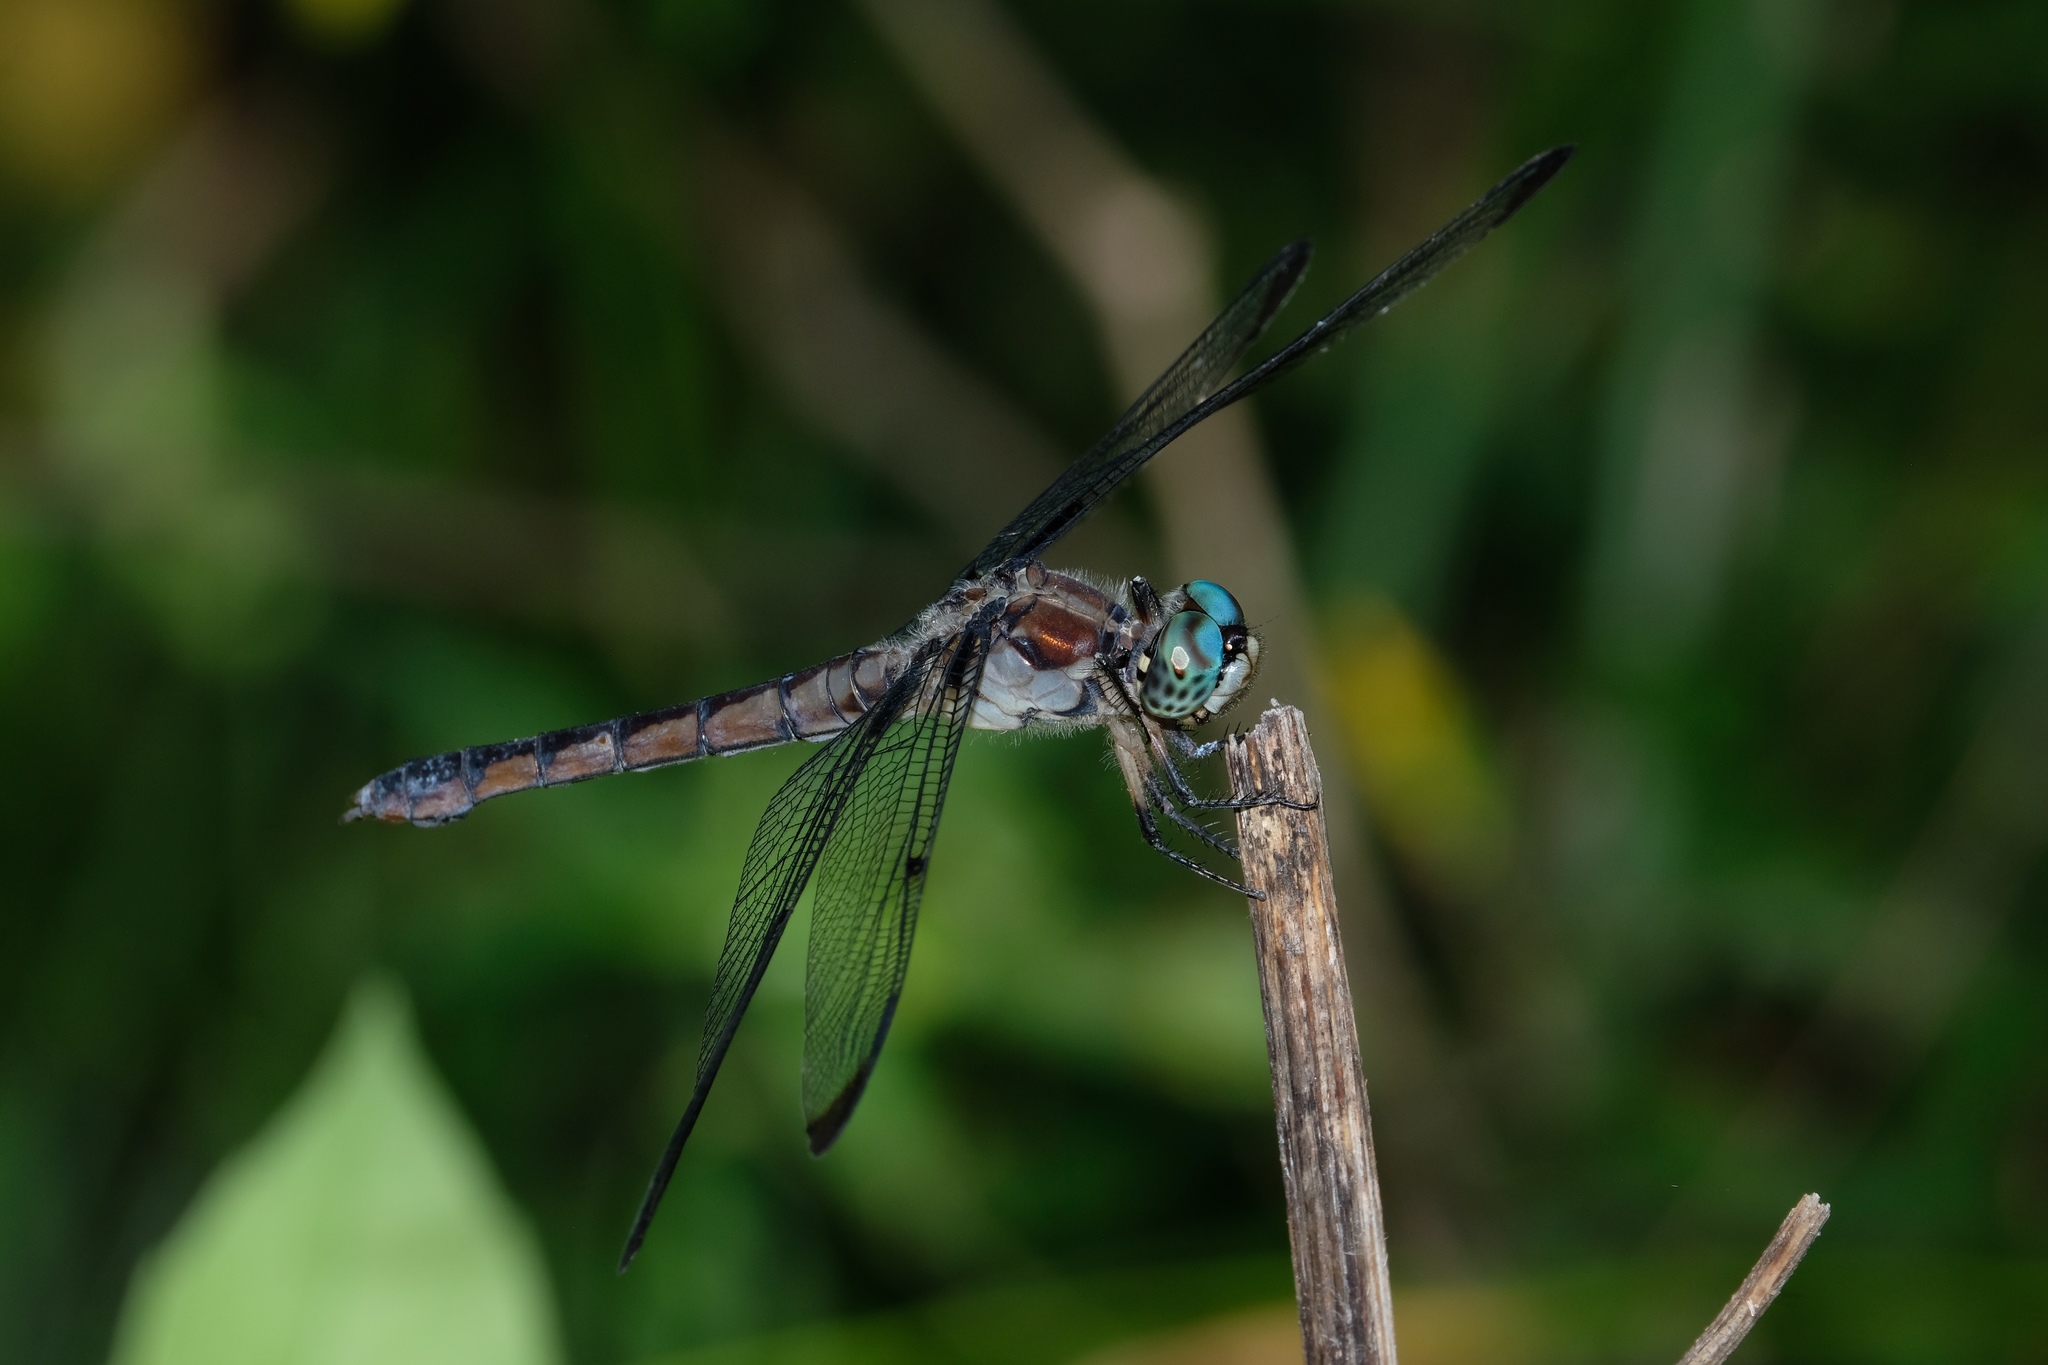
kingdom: Animalia
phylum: Arthropoda
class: Insecta
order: Odonata
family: Libellulidae
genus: Libellula
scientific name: Libellula vibrans
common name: Great blue skimmer
